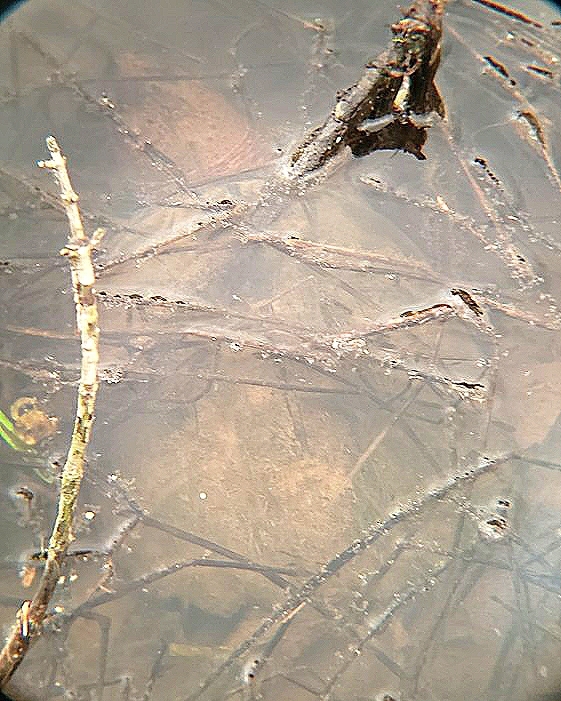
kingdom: Animalia
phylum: Chordata
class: Testudines
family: Chelydridae
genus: Chelydra
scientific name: Chelydra serpentina
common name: Common snapping turtle
